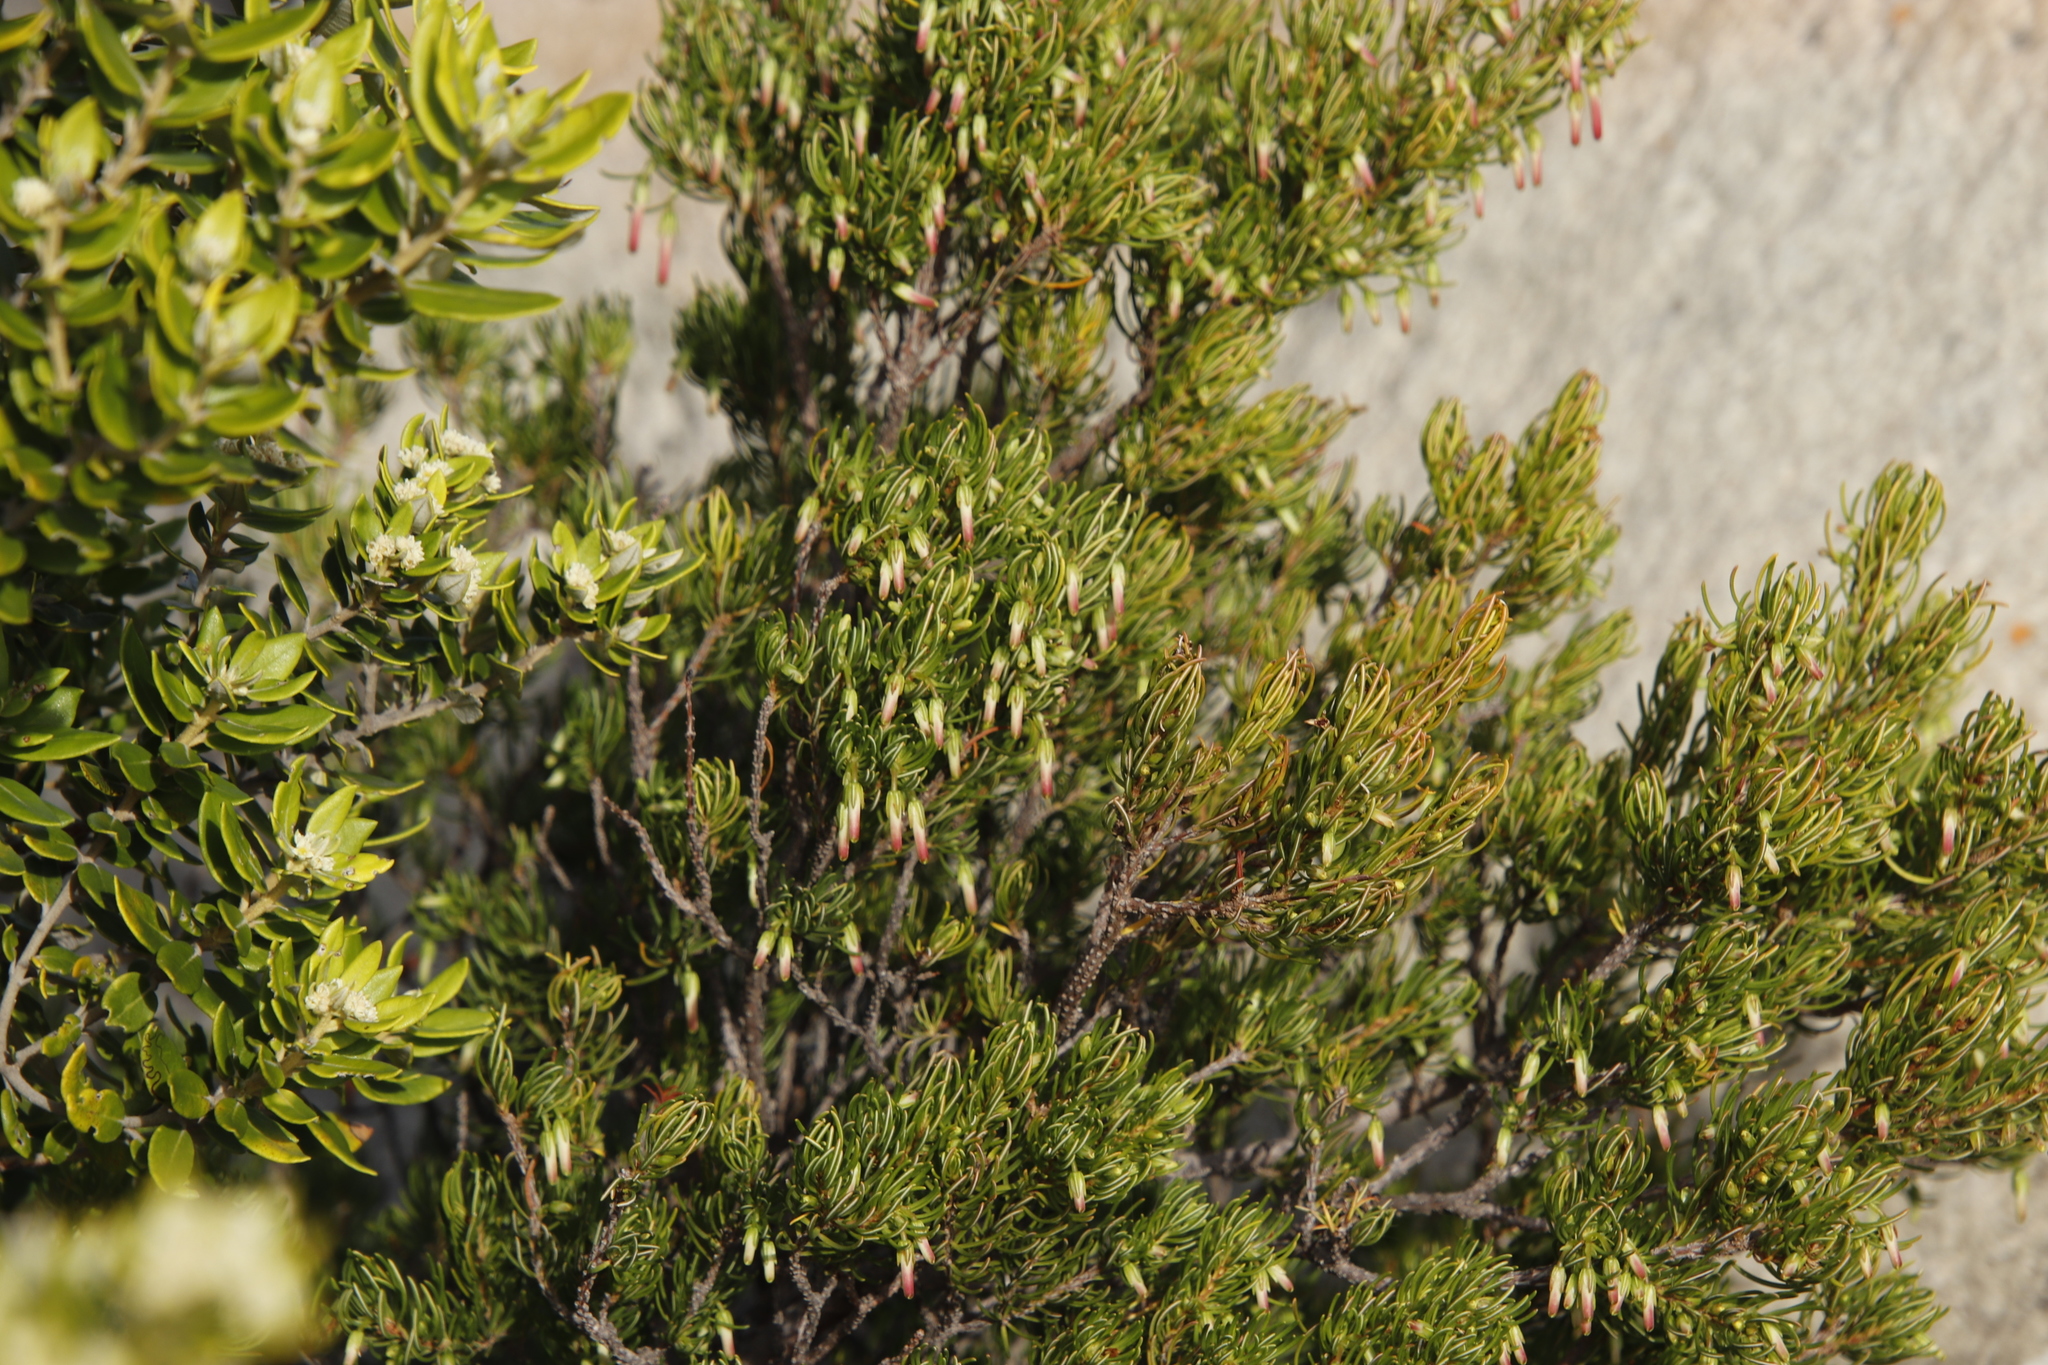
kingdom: Plantae
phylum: Tracheophyta
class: Magnoliopsida
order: Ericales
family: Ericaceae
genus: Erica
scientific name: Erica plukenetii
